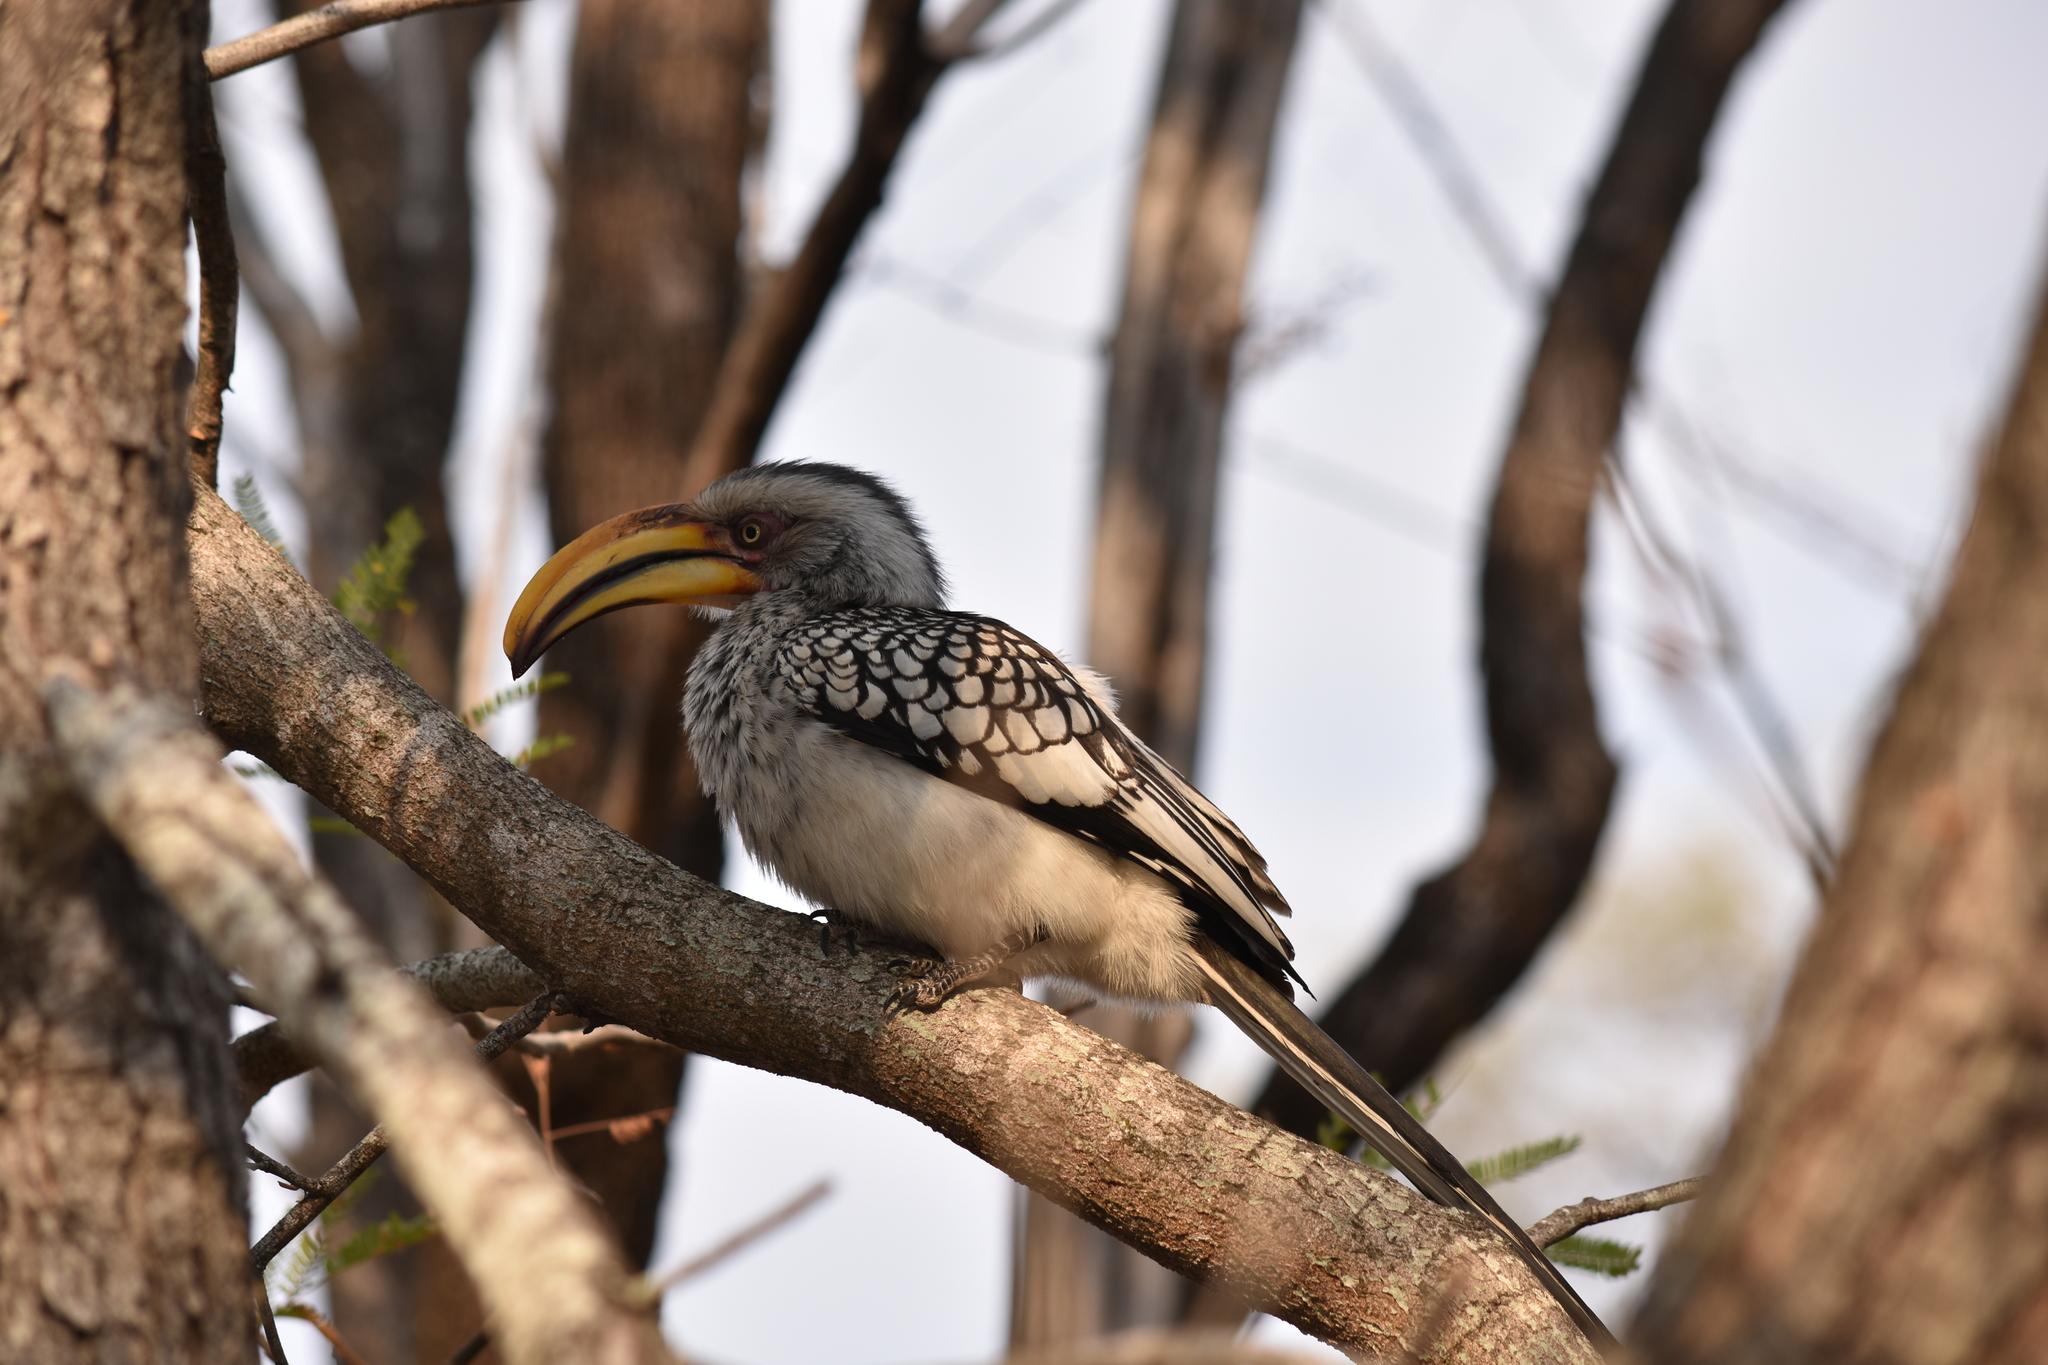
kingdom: Animalia
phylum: Chordata
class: Aves
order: Bucerotiformes
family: Bucerotidae
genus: Tockus
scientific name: Tockus leucomelas
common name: Southern yellow-billed hornbill
